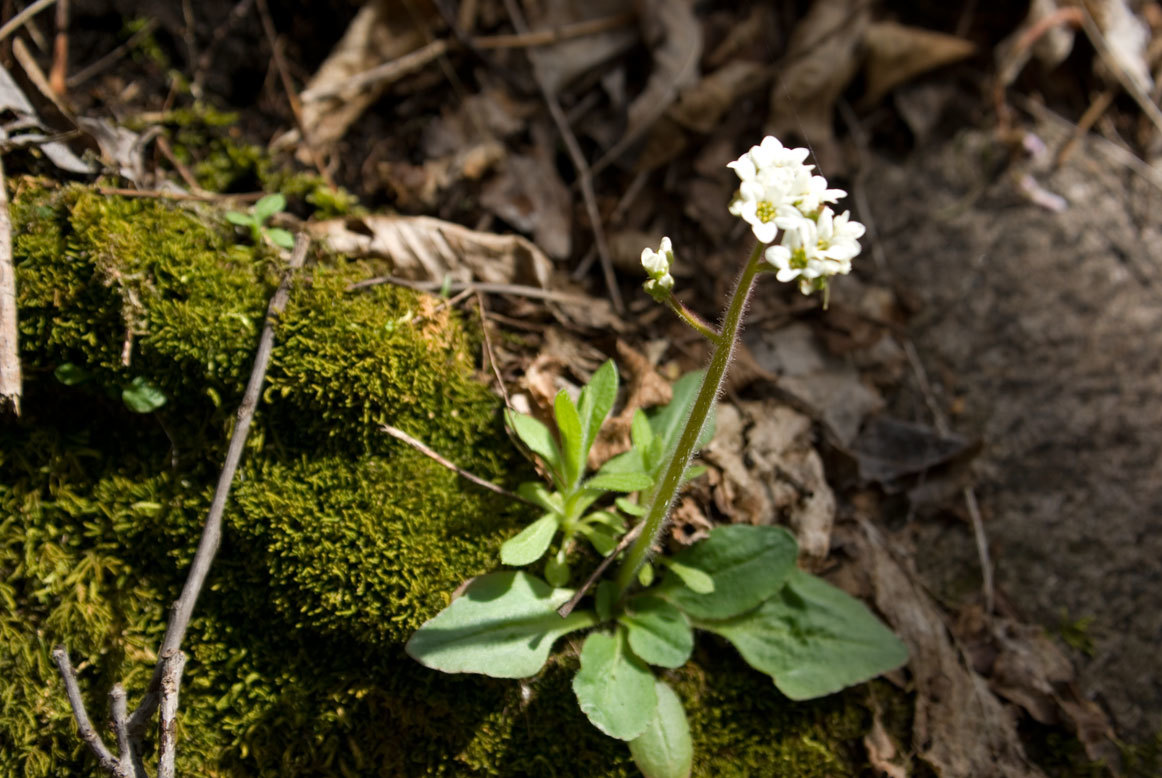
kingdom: Plantae
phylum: Tracheophyta
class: Magnoliopsida
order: Saxifragales
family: Saxifragaceae
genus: Micranthes
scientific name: Micranthes virginiensis
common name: Early saxifrage
